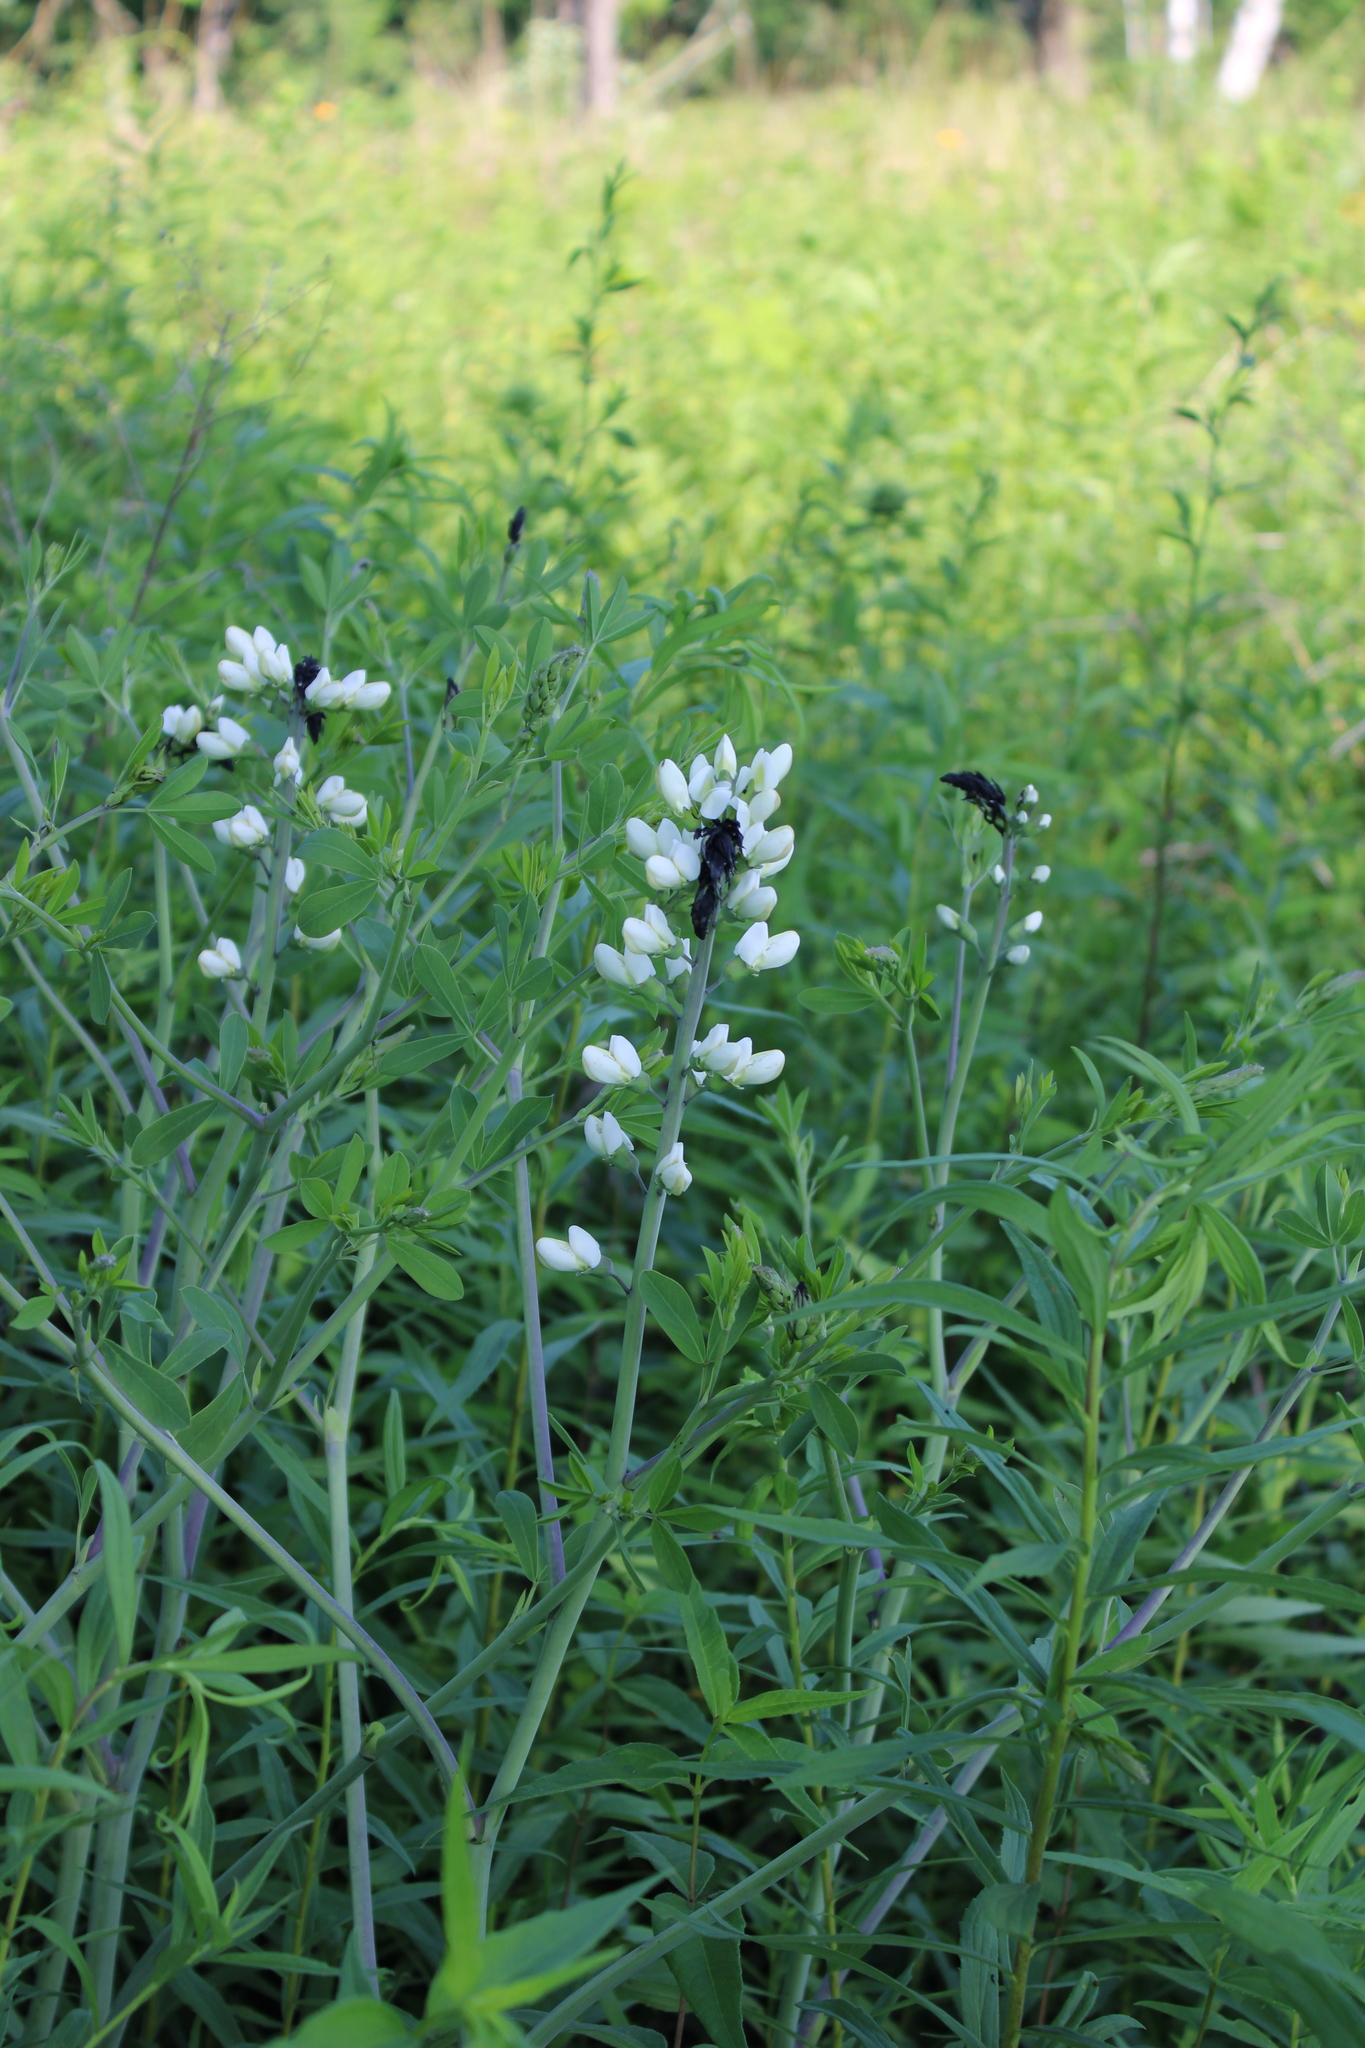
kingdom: Plantae
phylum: Tracheophyta
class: Magnoliopsida
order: Fabales
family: Fabaceae
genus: Baptisia
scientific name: Baptisia alba
